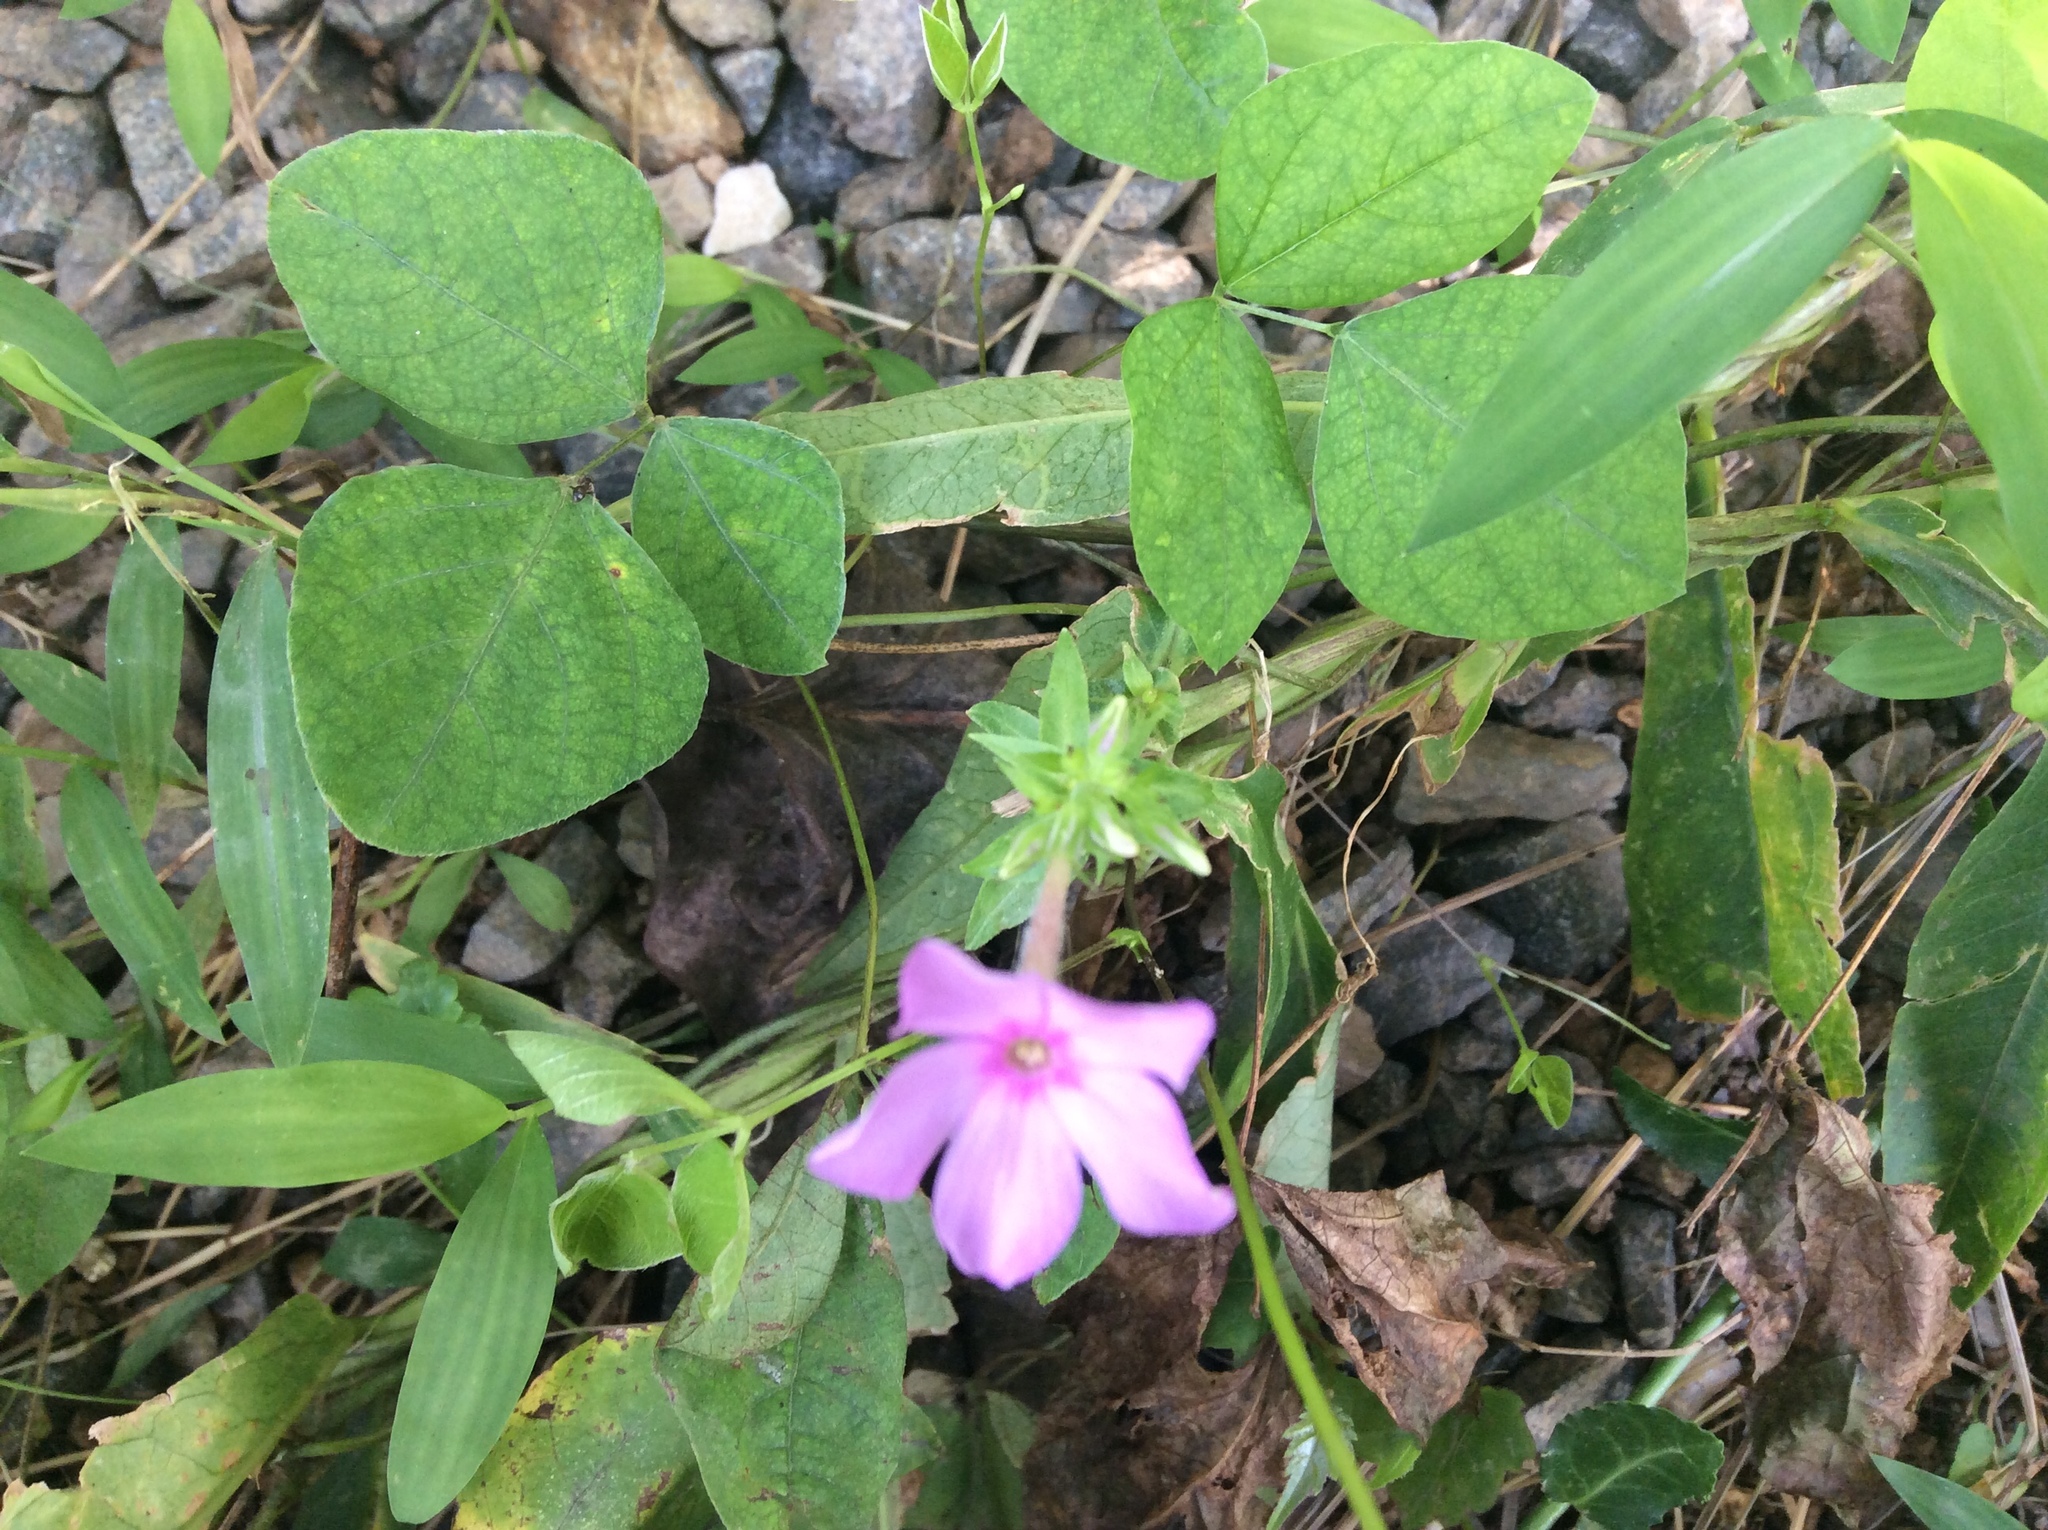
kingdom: Plantae
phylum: Tracheophyta
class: Magnoliopsida
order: Ericales
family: Polemoniaceae
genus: Phlox
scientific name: Phlox paniculata
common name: Fall phlox
